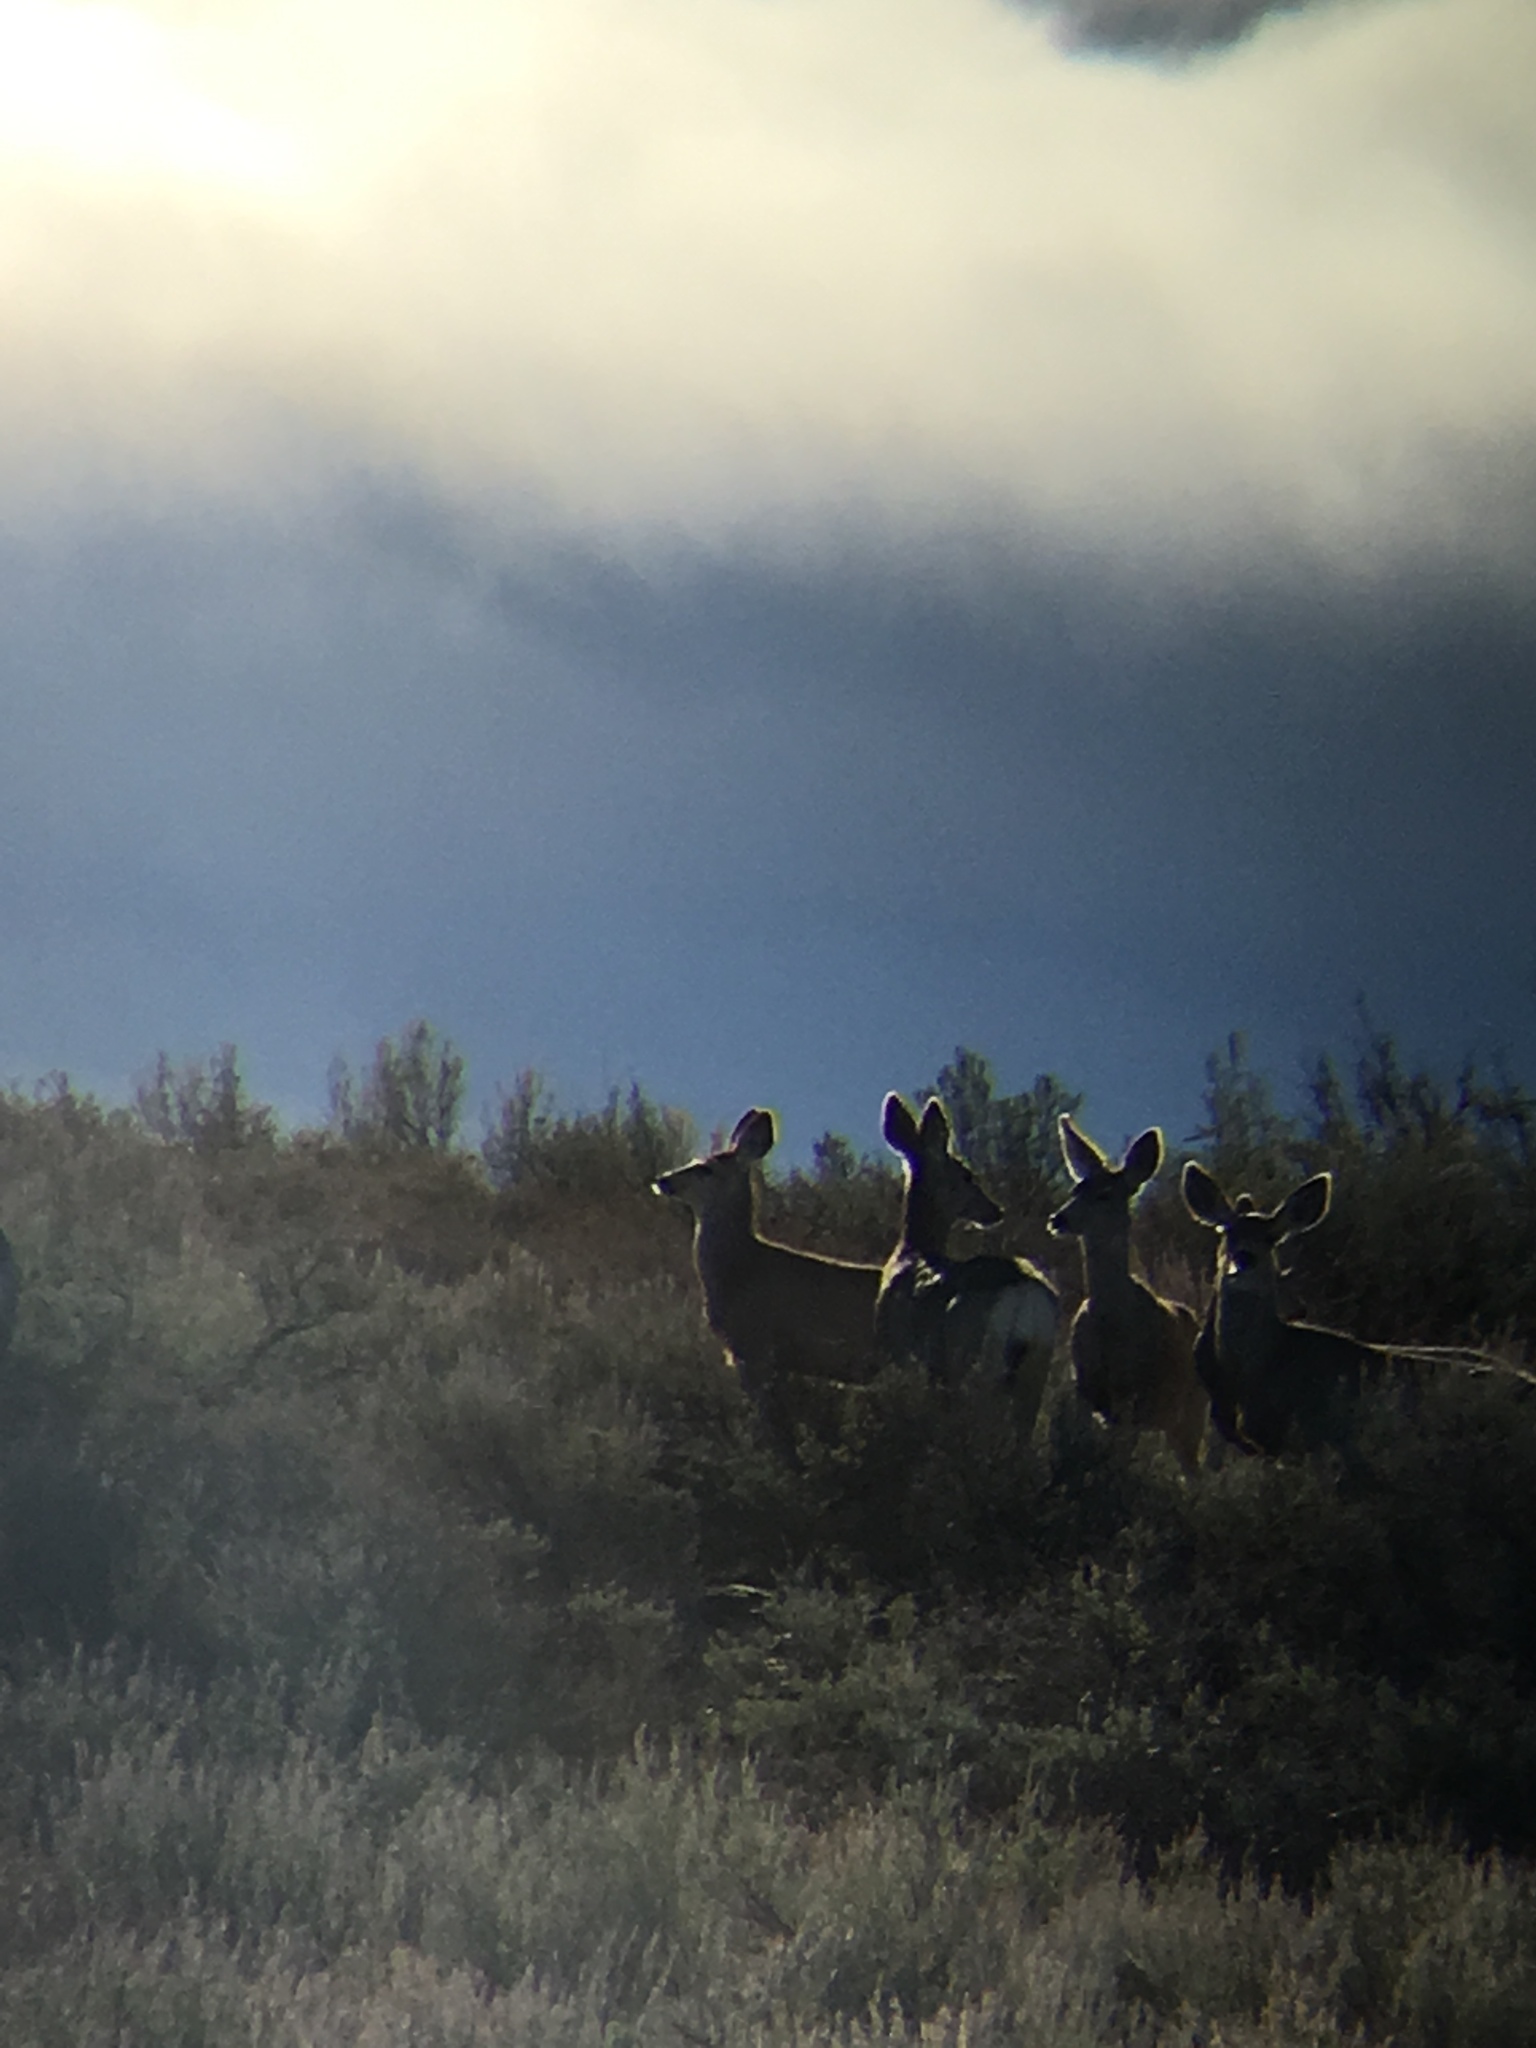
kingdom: Animalia
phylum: Chordata
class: Mammalia
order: Artiodactyla
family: Cervidae
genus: Odocoileus
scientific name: Odocoileus hemionus
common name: Mule deer
